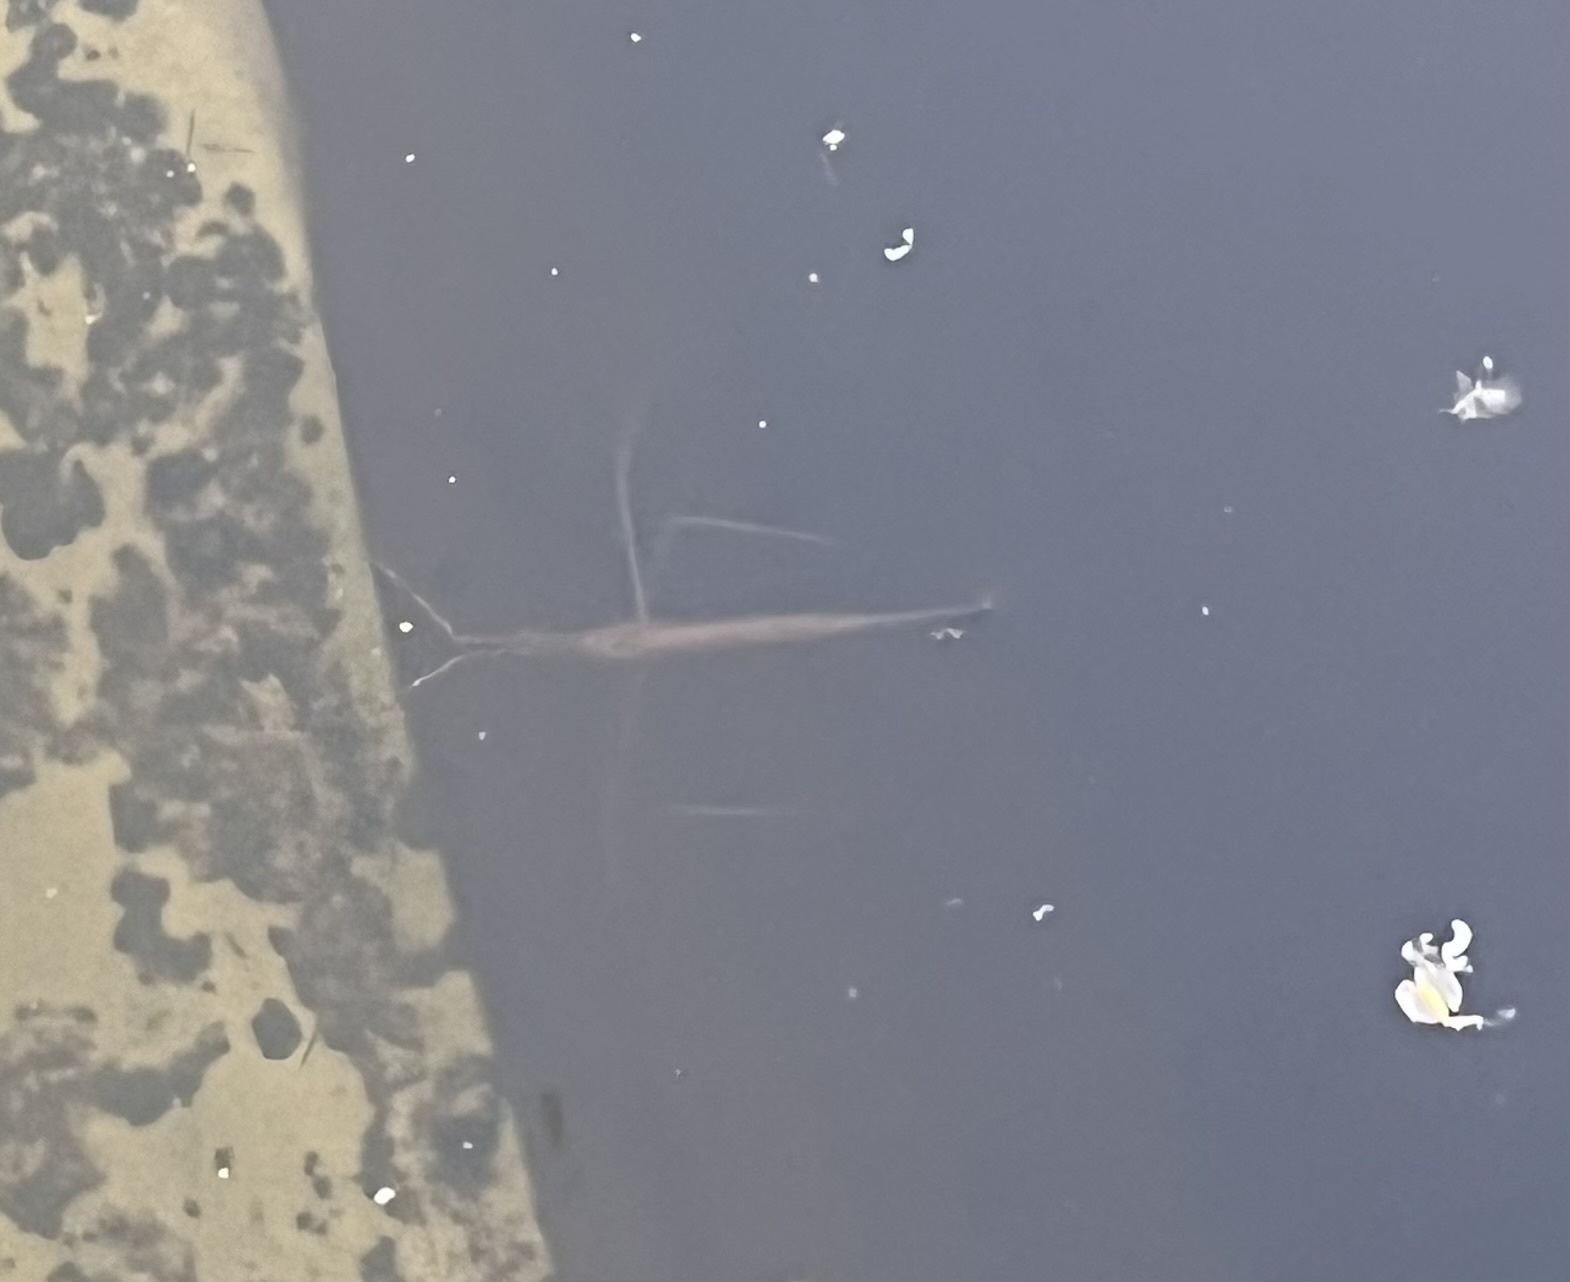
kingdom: Animalia
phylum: Arthropoda
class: Insecta
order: Hemiptera
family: Nepidae
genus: Ranatra
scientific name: Ranatra linearis
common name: Water stick insect
